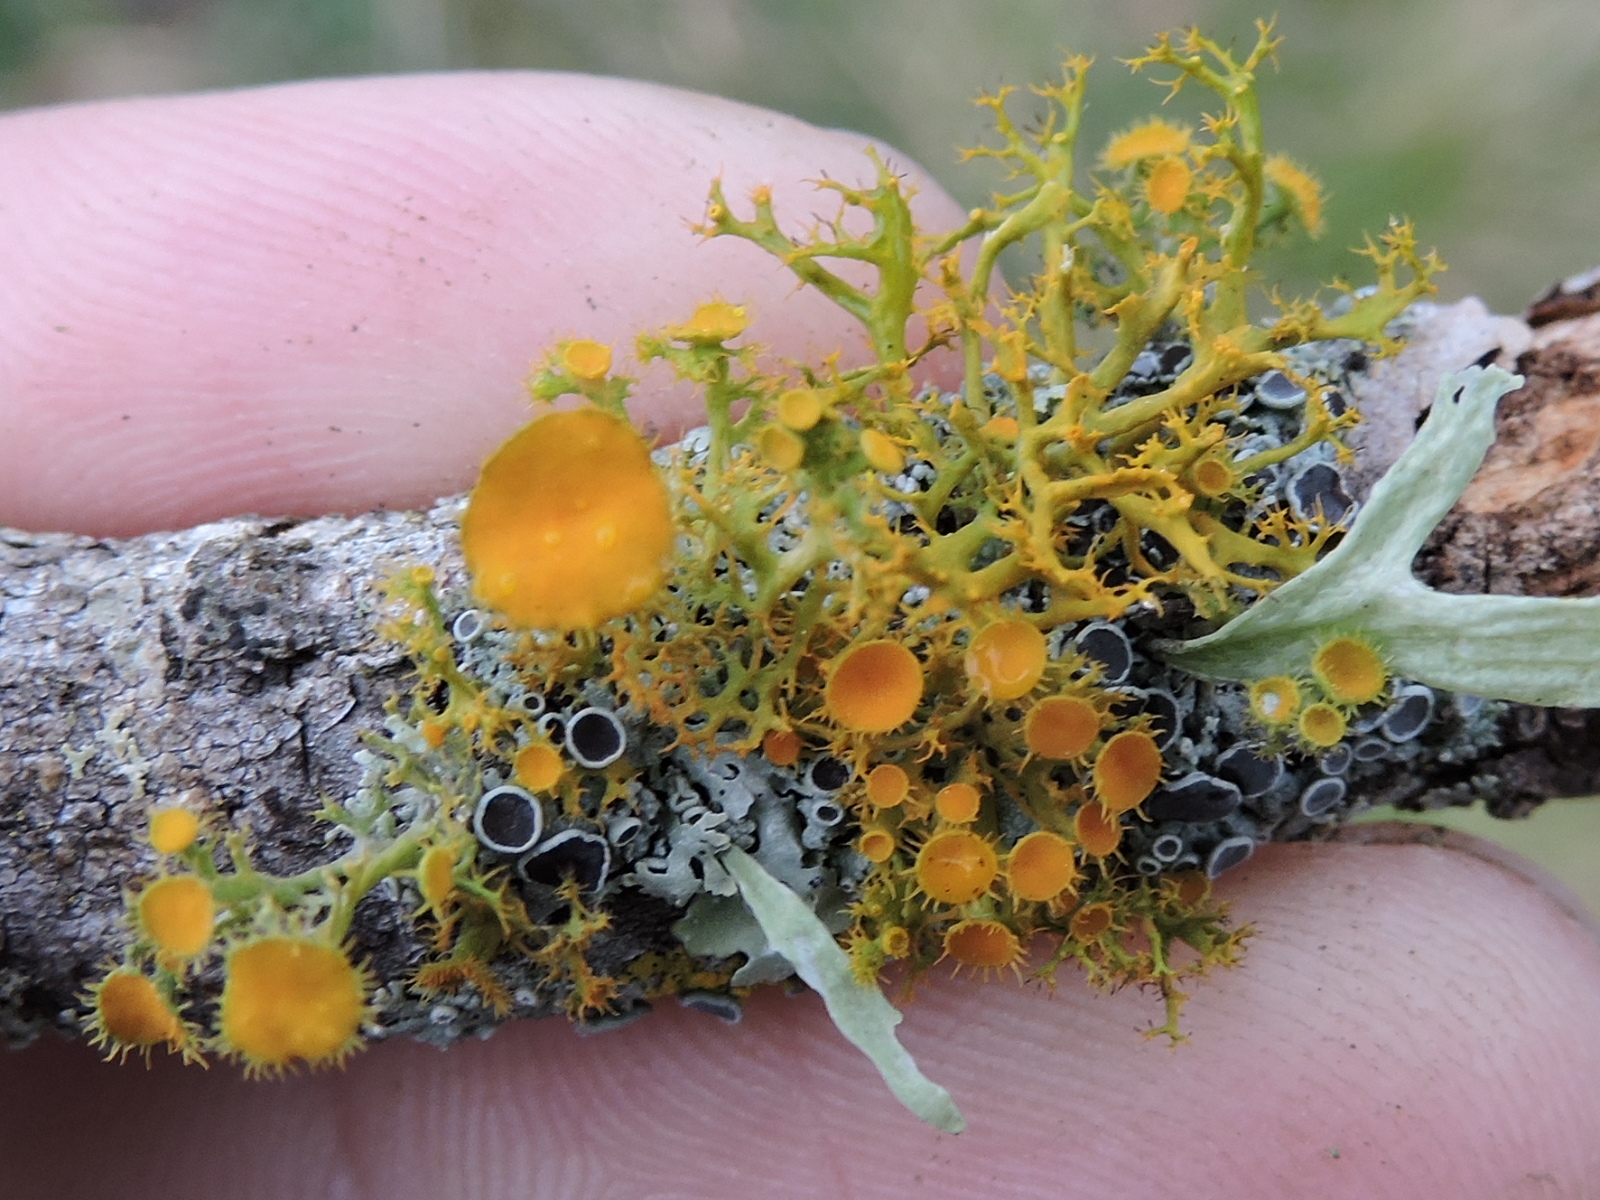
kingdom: Fungi
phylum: Ascomycota
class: Lecanoromycetes
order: Teloschistales
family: Teloschistaceae
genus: Niorma
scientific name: Niorma chrysophthalma
